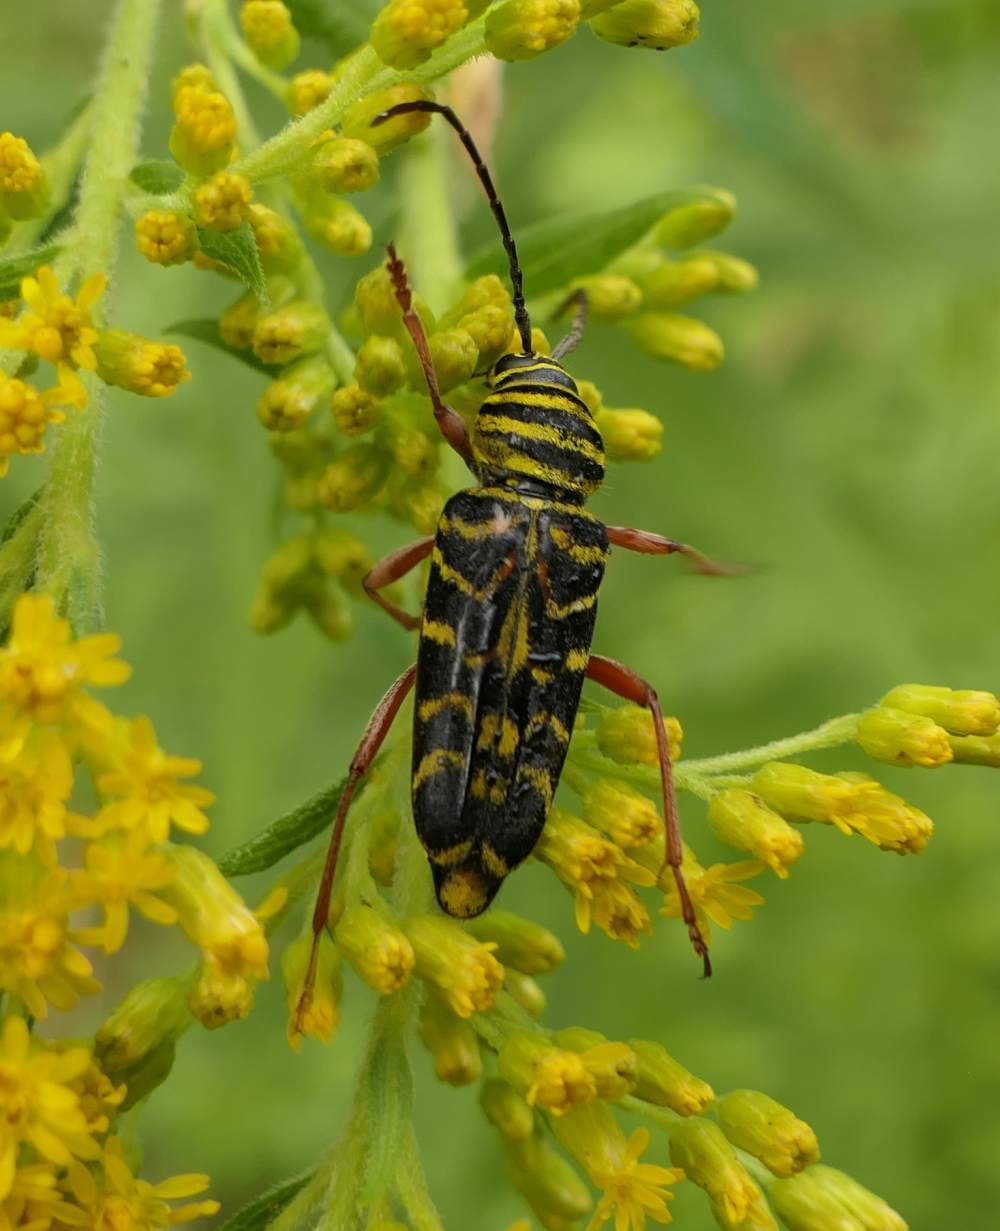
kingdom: Animalia
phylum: Arthropoda
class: Insecta
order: Coleoptera
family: Cerambycidae
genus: Megacyllene
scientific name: Megacyllene robiniae
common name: Locust borer
